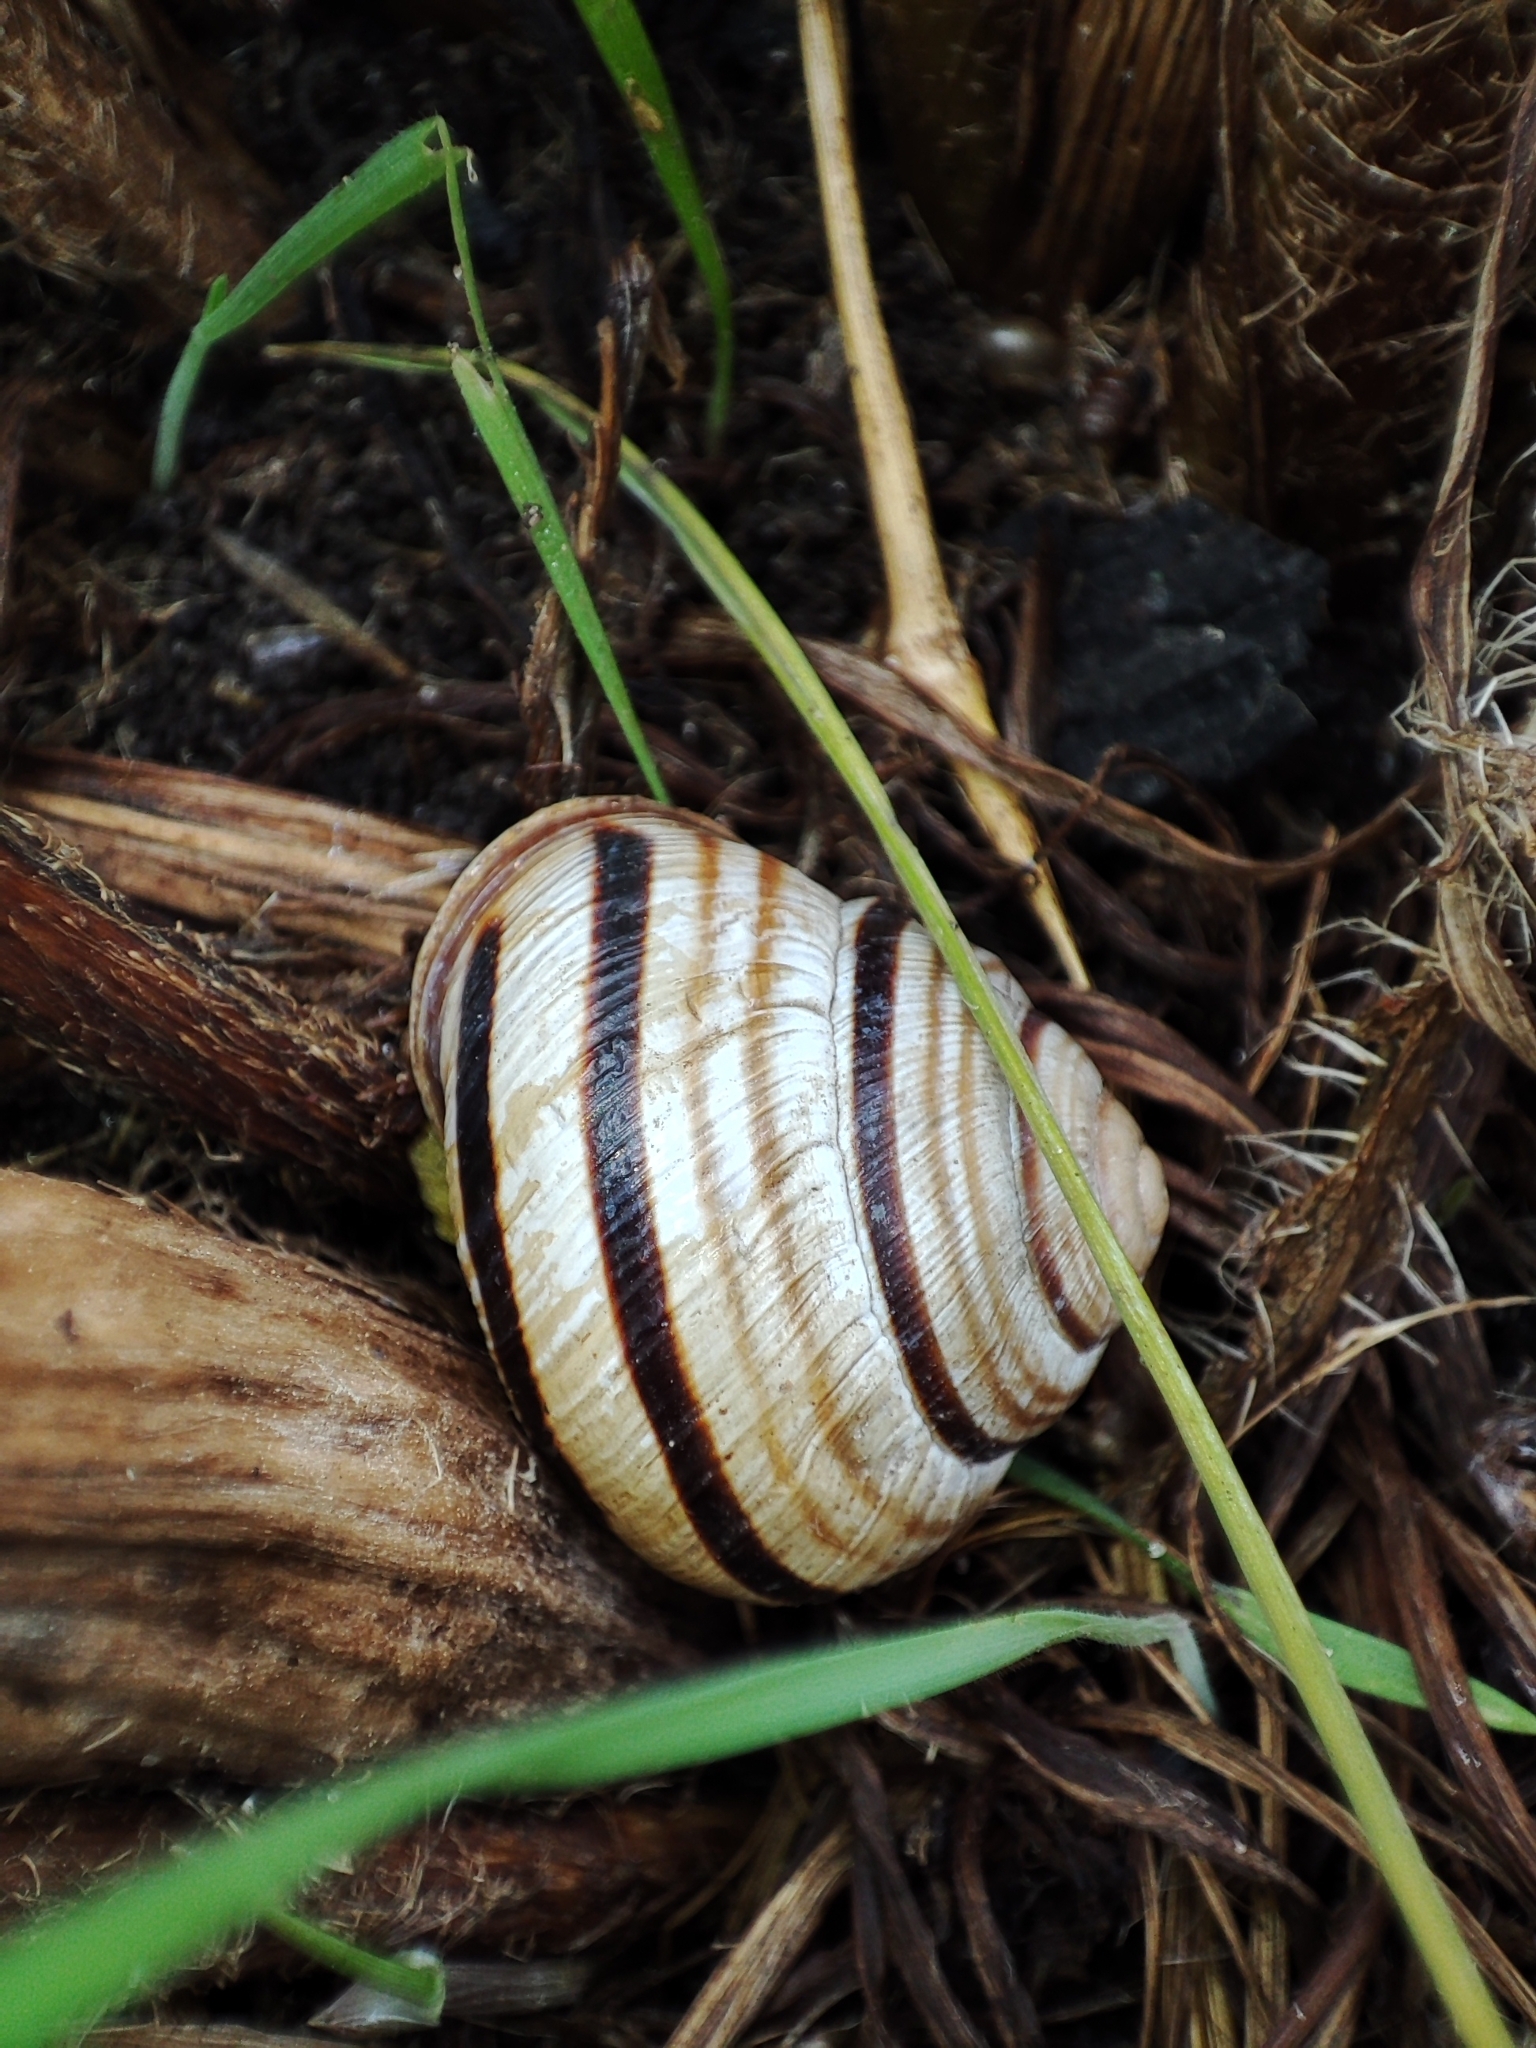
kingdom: Animalia
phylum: Mollusca
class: Gastropoda
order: Stylommatophora
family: Helicidae
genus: Caucasotachea
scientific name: Caucasotachea vindobonensis
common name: European helicid land snail
